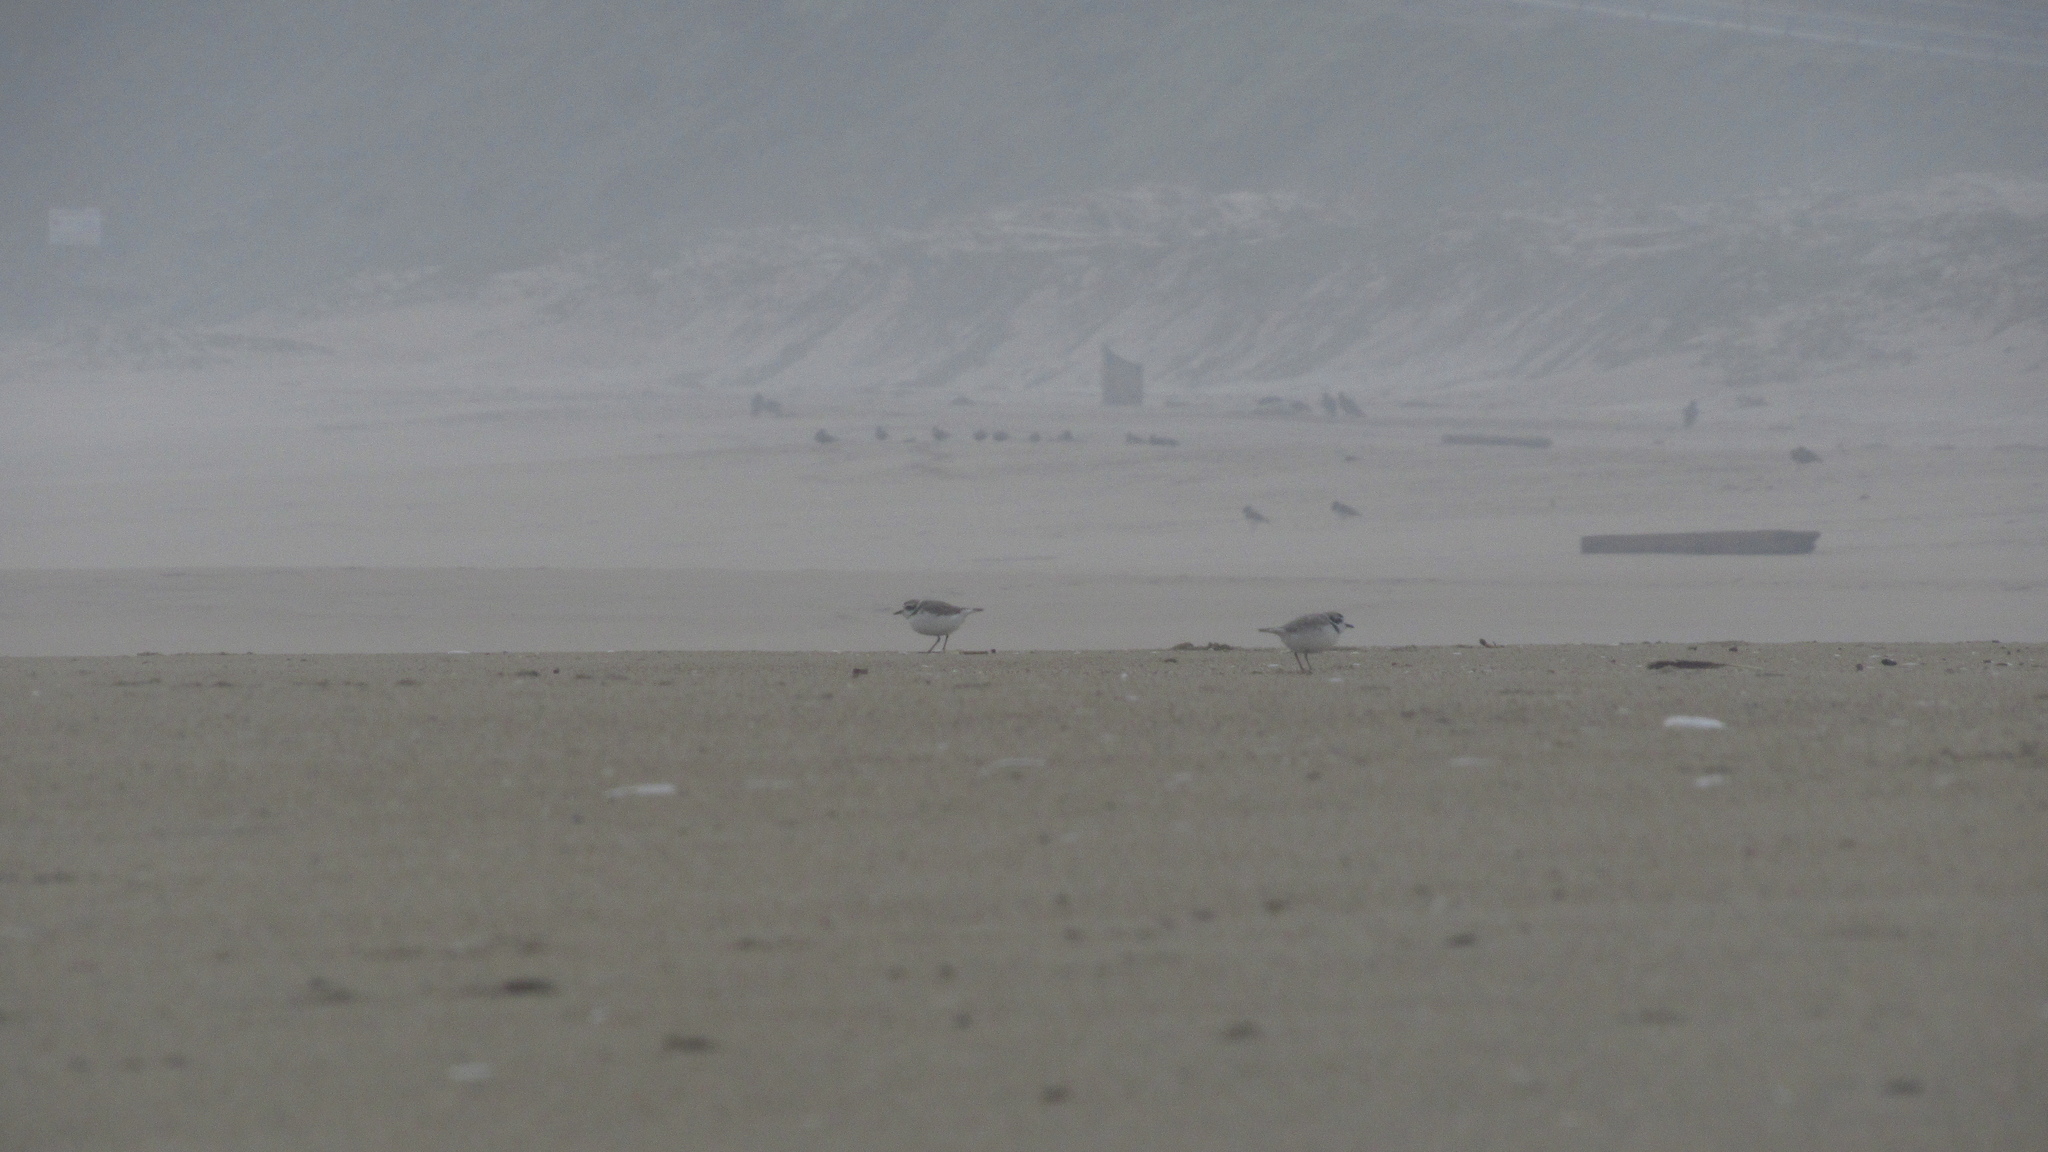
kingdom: Animalia
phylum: Chordata
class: Aves
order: Charadriiformes
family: Charadriidae
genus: Anarhynchus
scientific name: Anarhynchus
